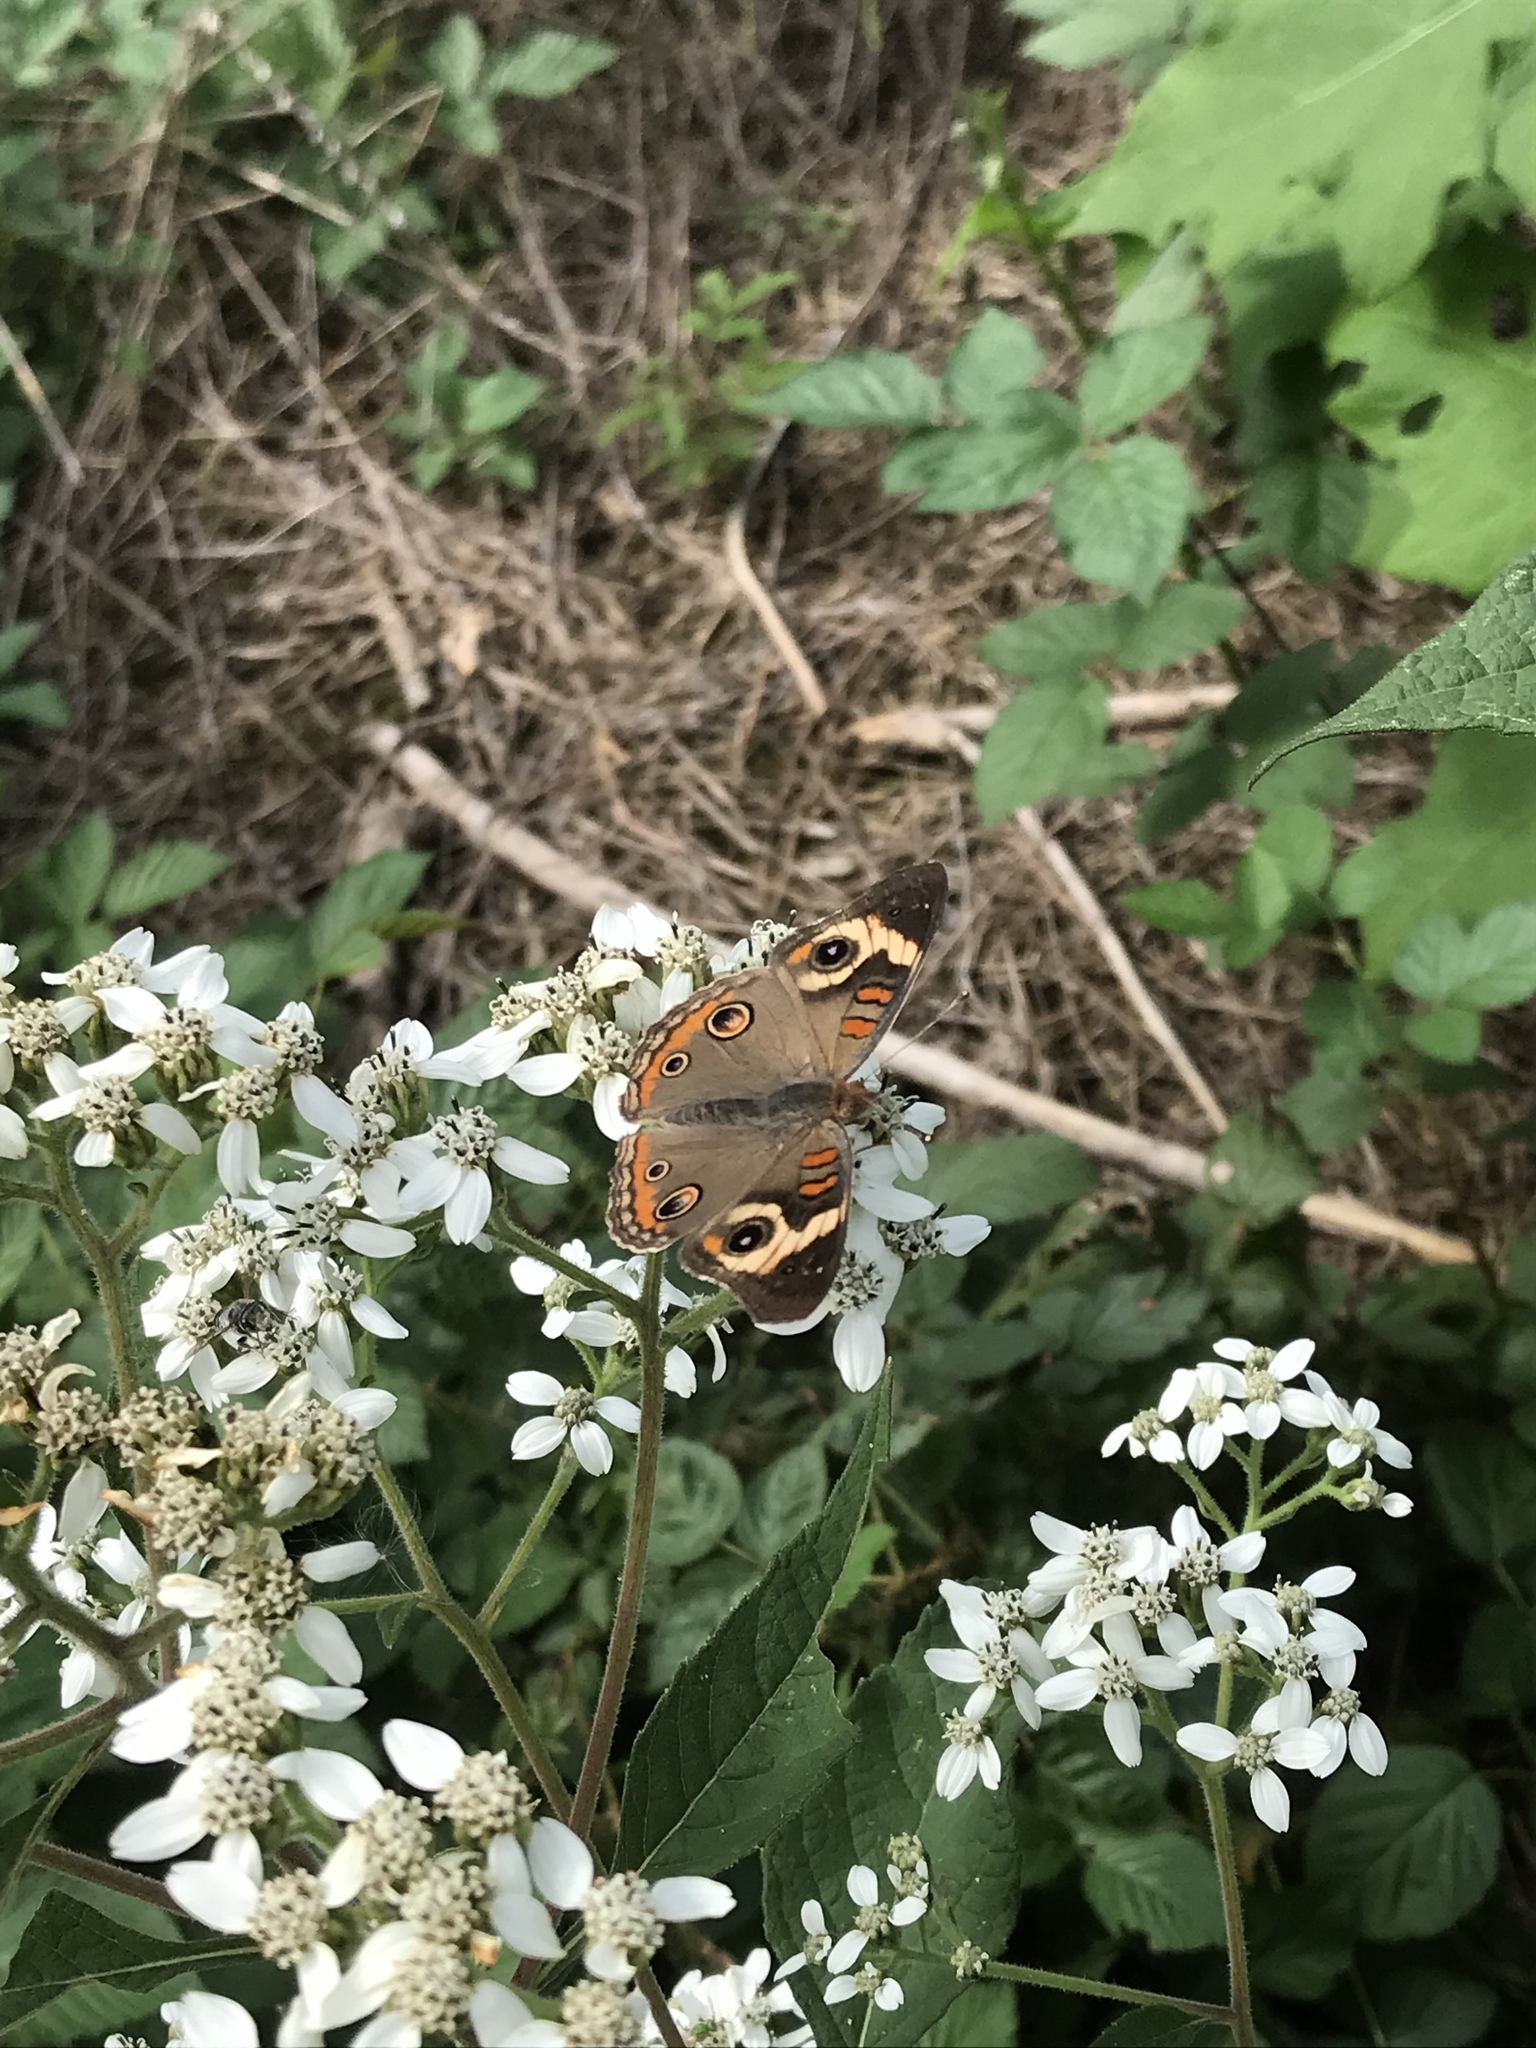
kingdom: Animalia
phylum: Arthropoda
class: Insecta
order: Lepidoptera
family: Nymphalidae
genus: Junonia
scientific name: Junonia coenia
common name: Common buckeye
